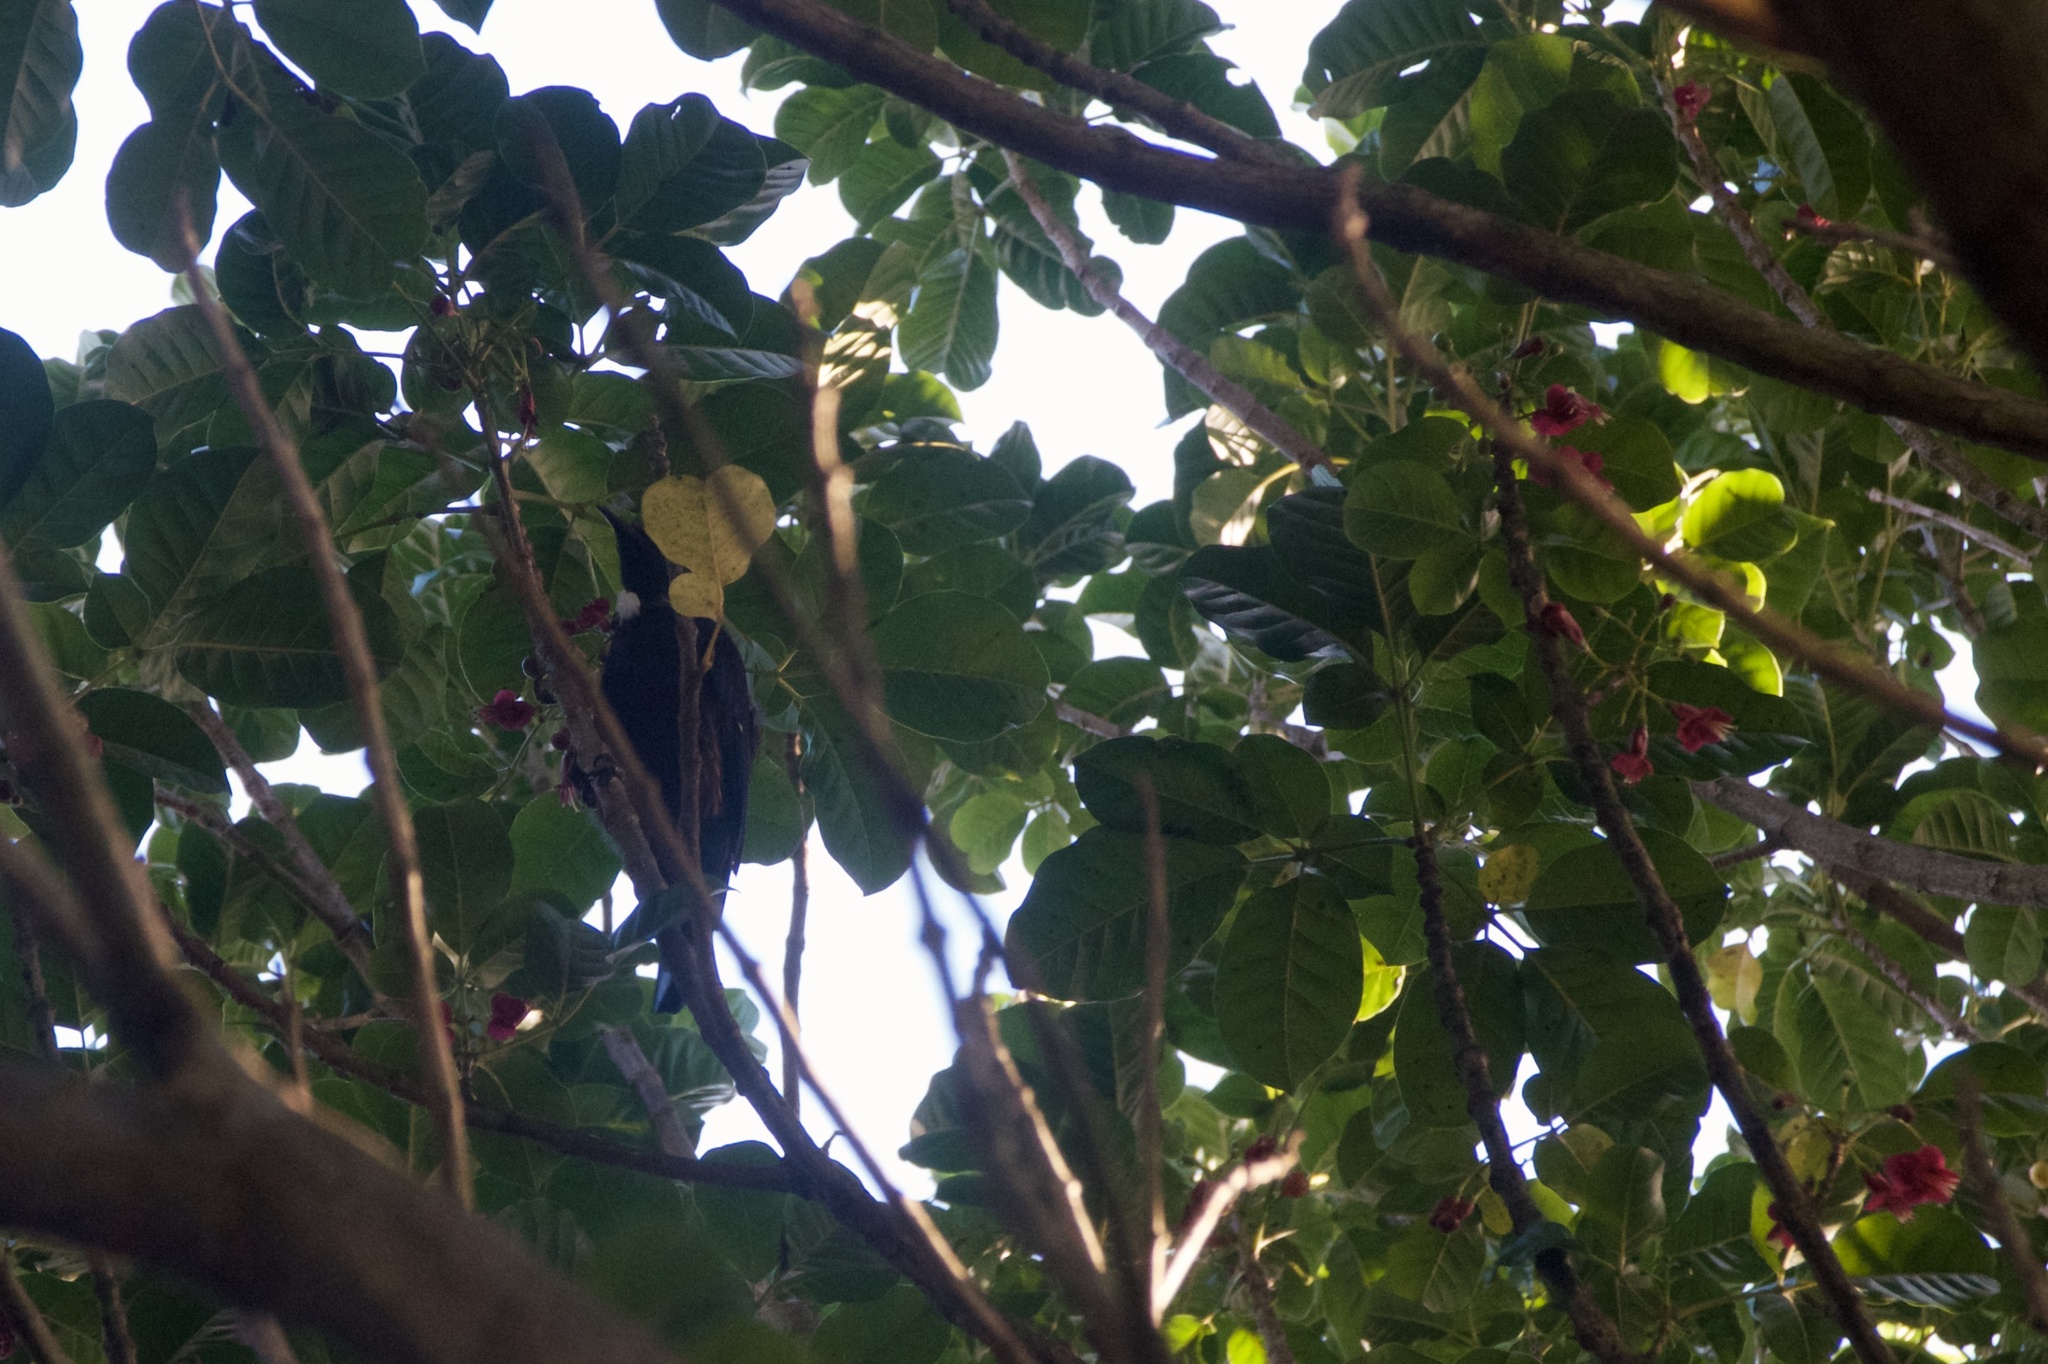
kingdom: Animalia
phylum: Chordata
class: Aves
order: Passeriformes
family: Meliphagidae
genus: Prosthemadera
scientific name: Prosthemadera novaeseelandiae
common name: Tui
